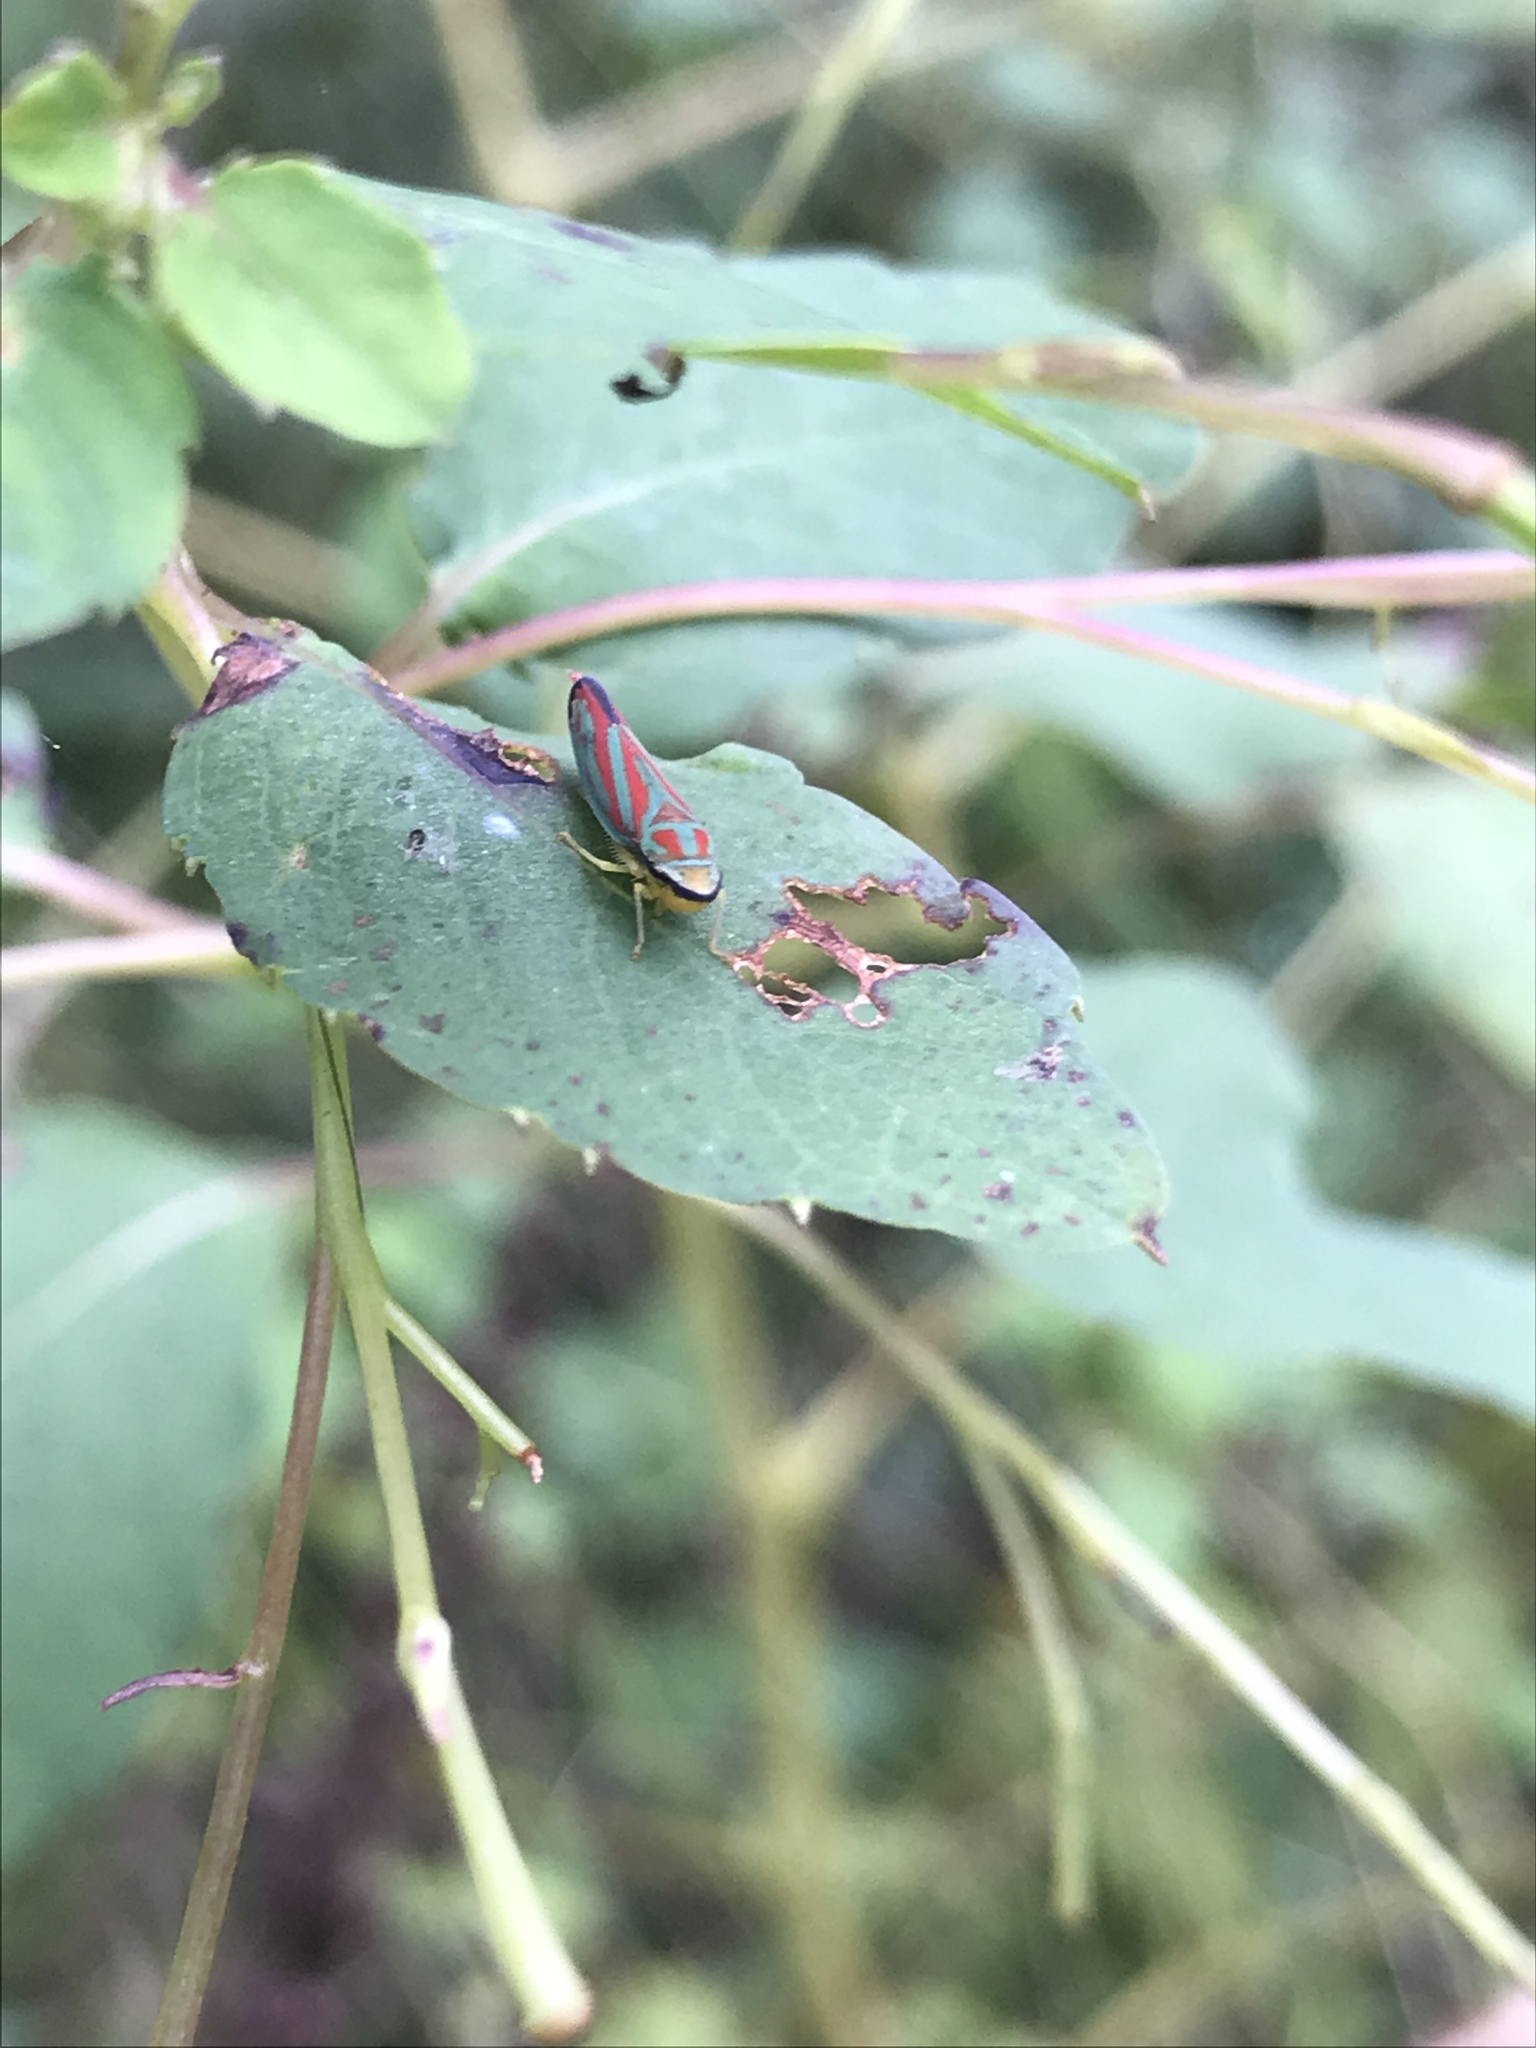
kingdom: Animalia
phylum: Arthropoda
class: Insecta
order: Hemiptera
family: Cicadellidae
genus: Graphocephala
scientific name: Graphocephala coccinea
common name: Candy-striped leafhopper
